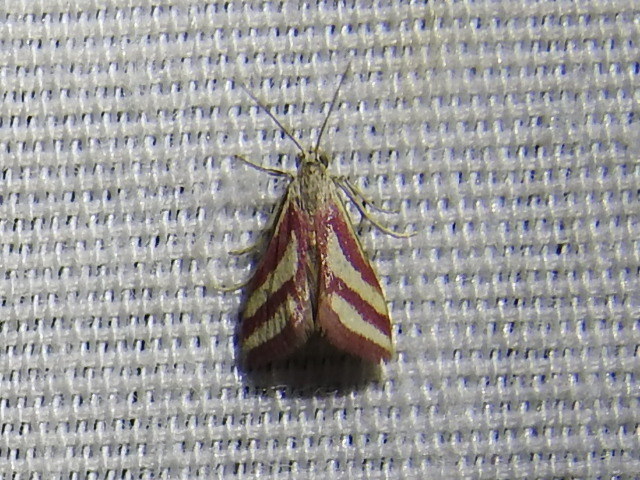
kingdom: Animalia
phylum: Arthropoda
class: Insecta
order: Lepidoptera
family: Crambidae
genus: Microtheoris
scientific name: Microtheoris vibicalis
